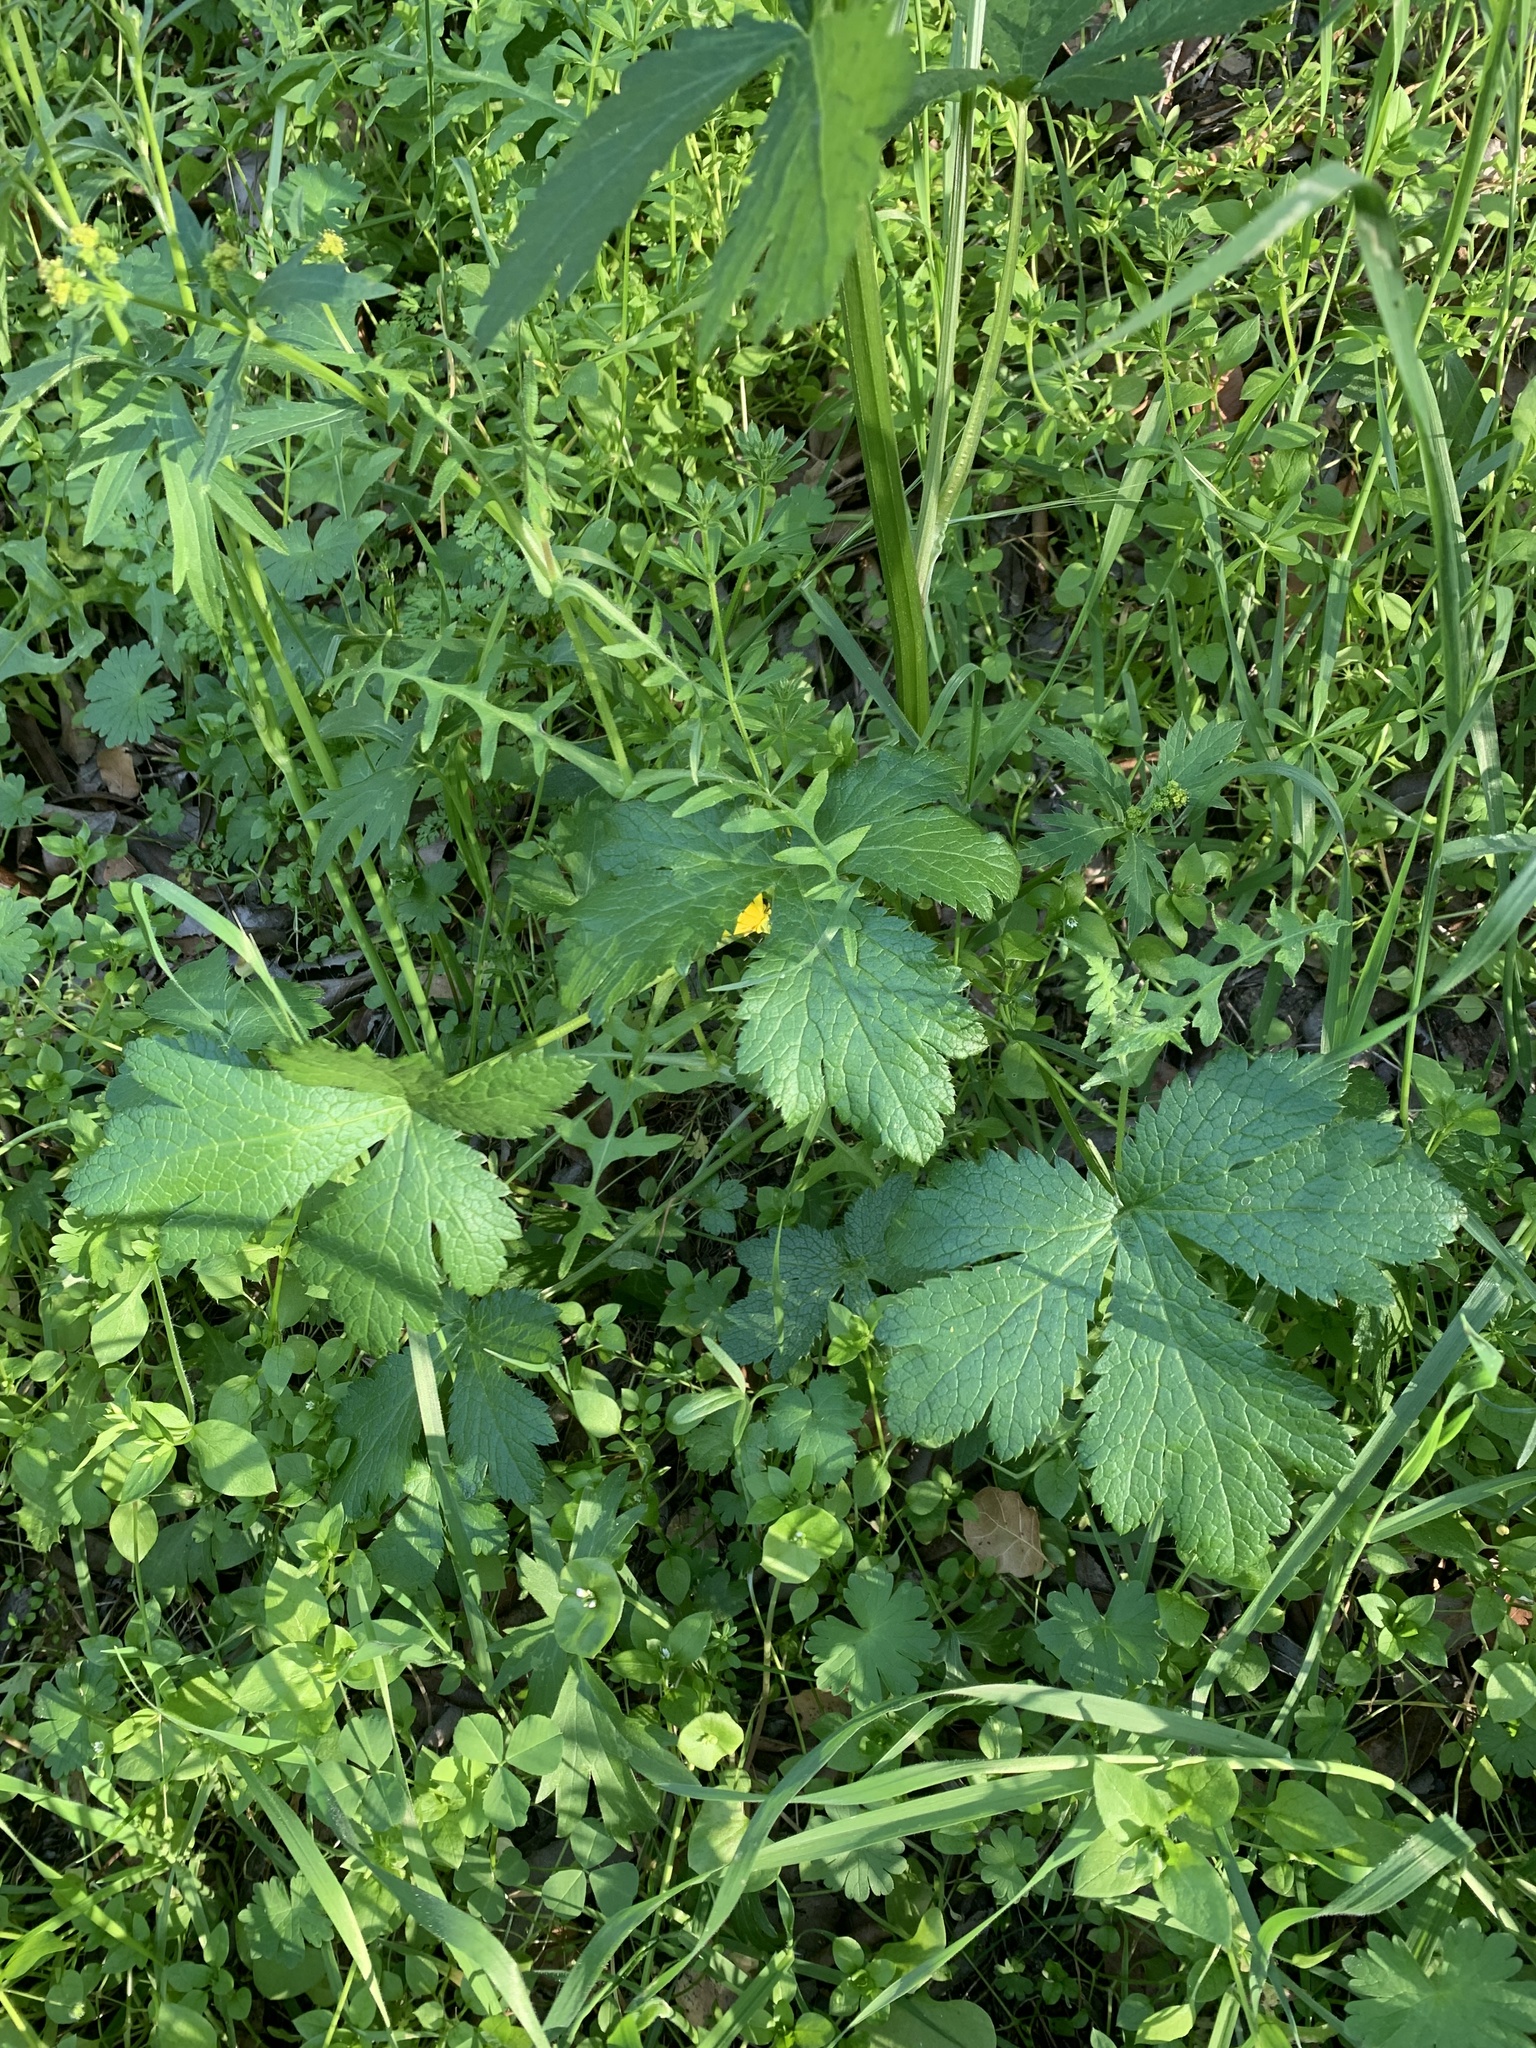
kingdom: Plantae
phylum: Tracheophyta
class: Magnoliopsida
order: Apiales
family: Apiaceae
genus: Sanicula
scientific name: Sanicula crassicaulis
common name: Western snakeroot
